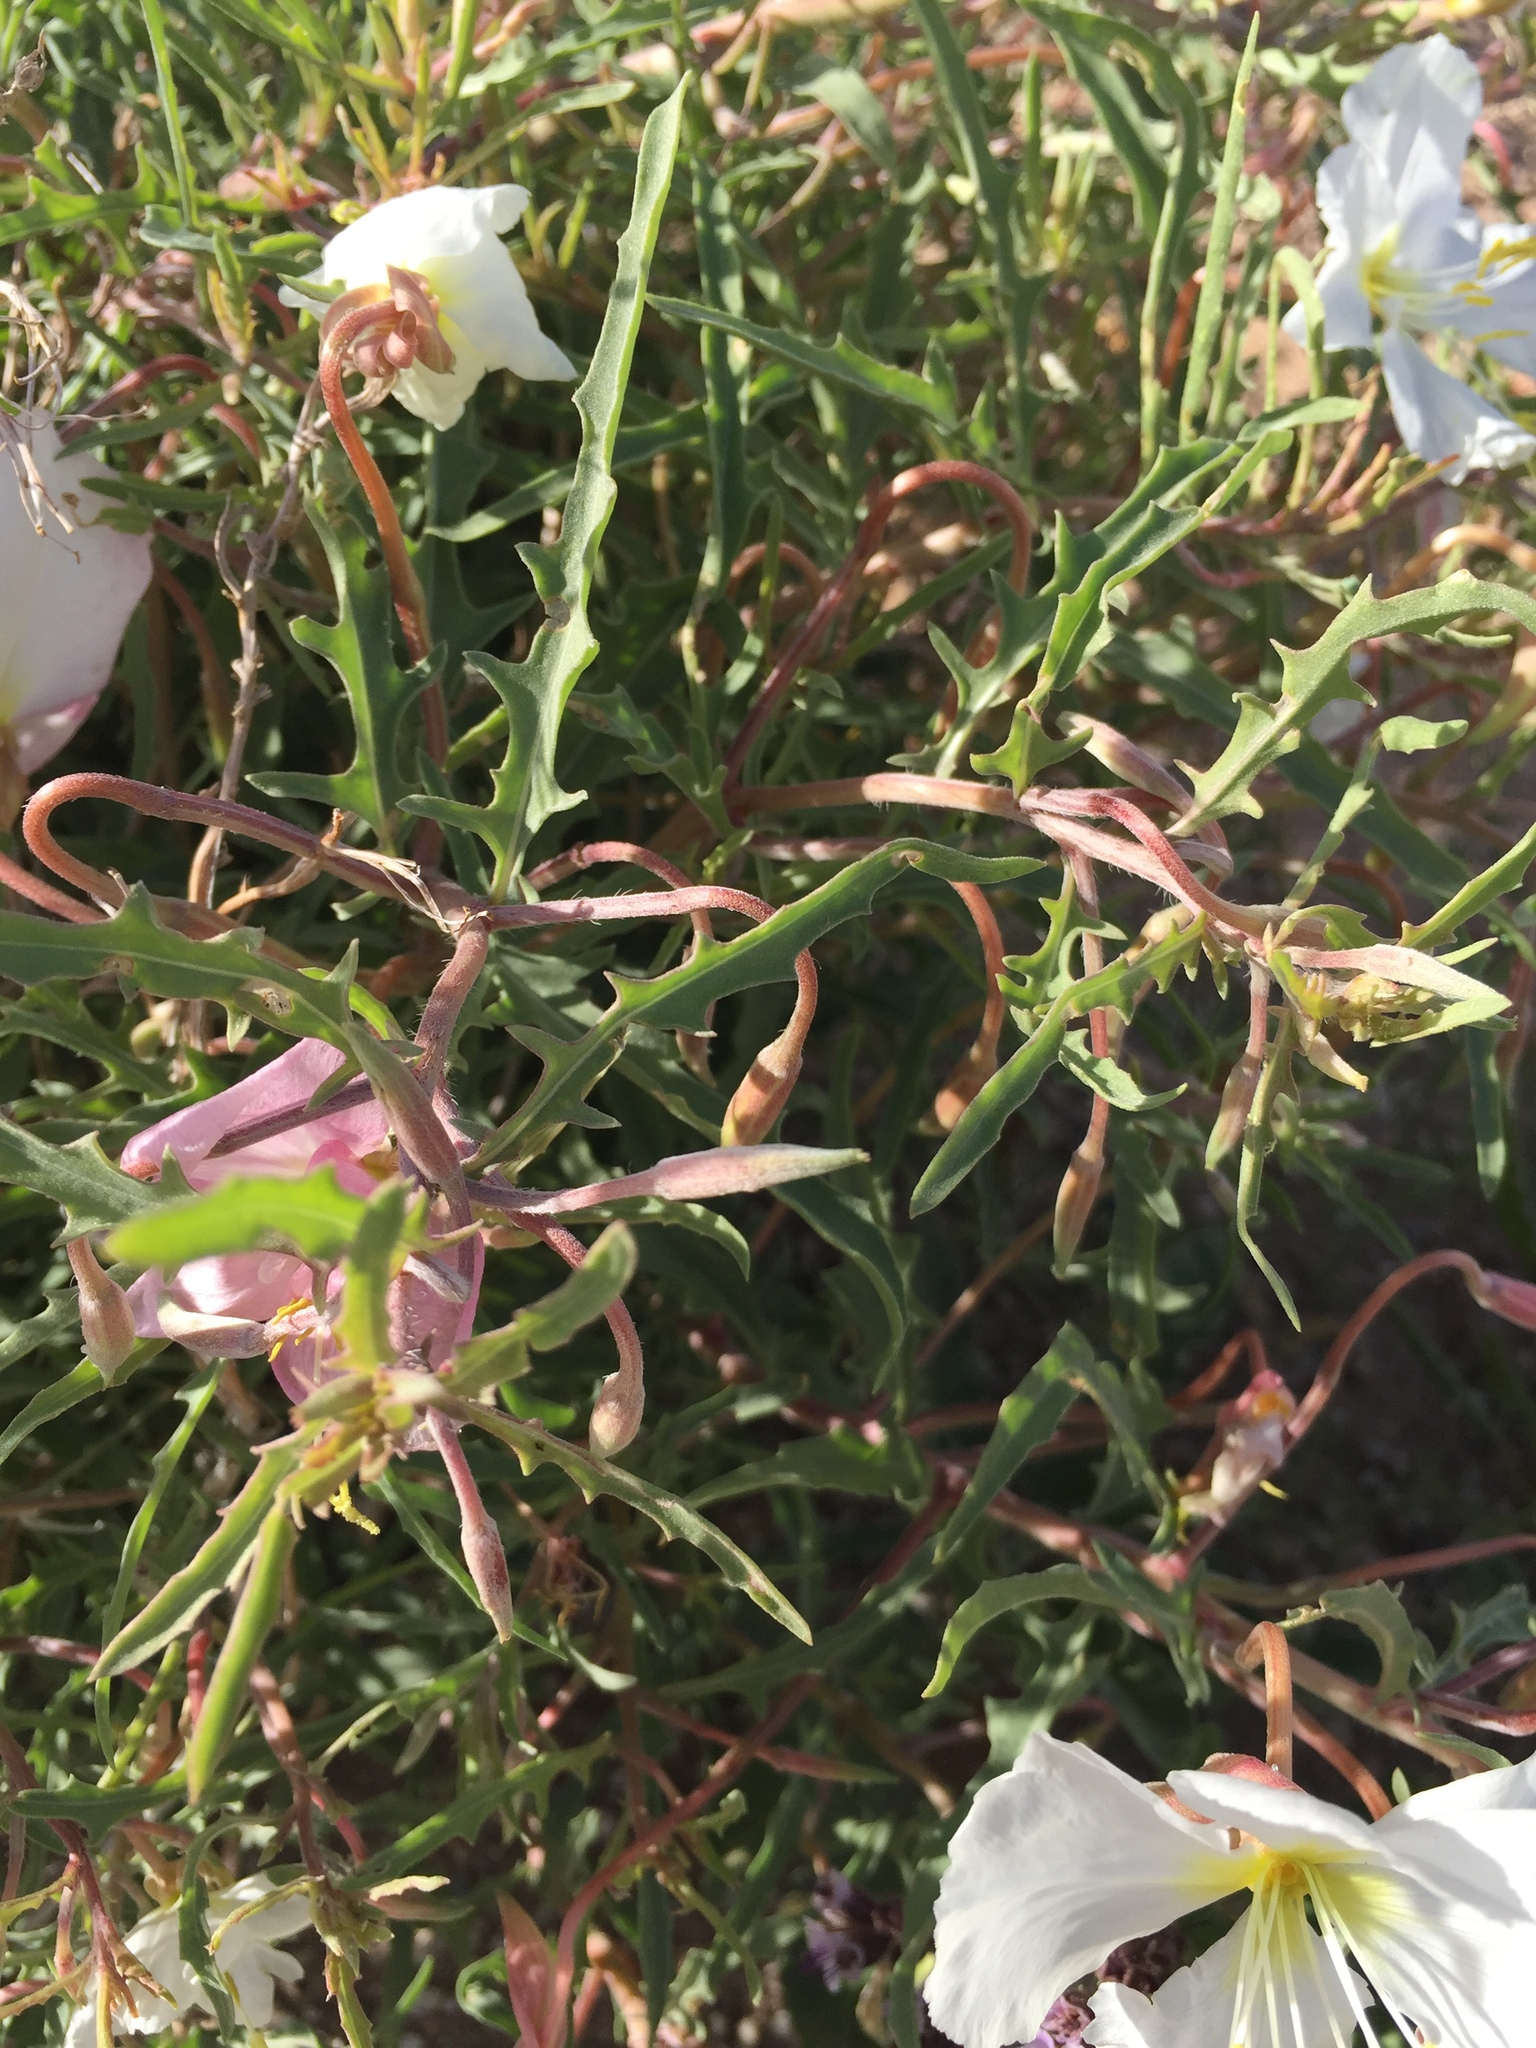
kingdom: Plantae
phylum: Tracheophyta
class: Magnoliopsida
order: Myrtales
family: Onagraceae
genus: Oenothera
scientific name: Oenothera pallida
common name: Pale evening-primrose
